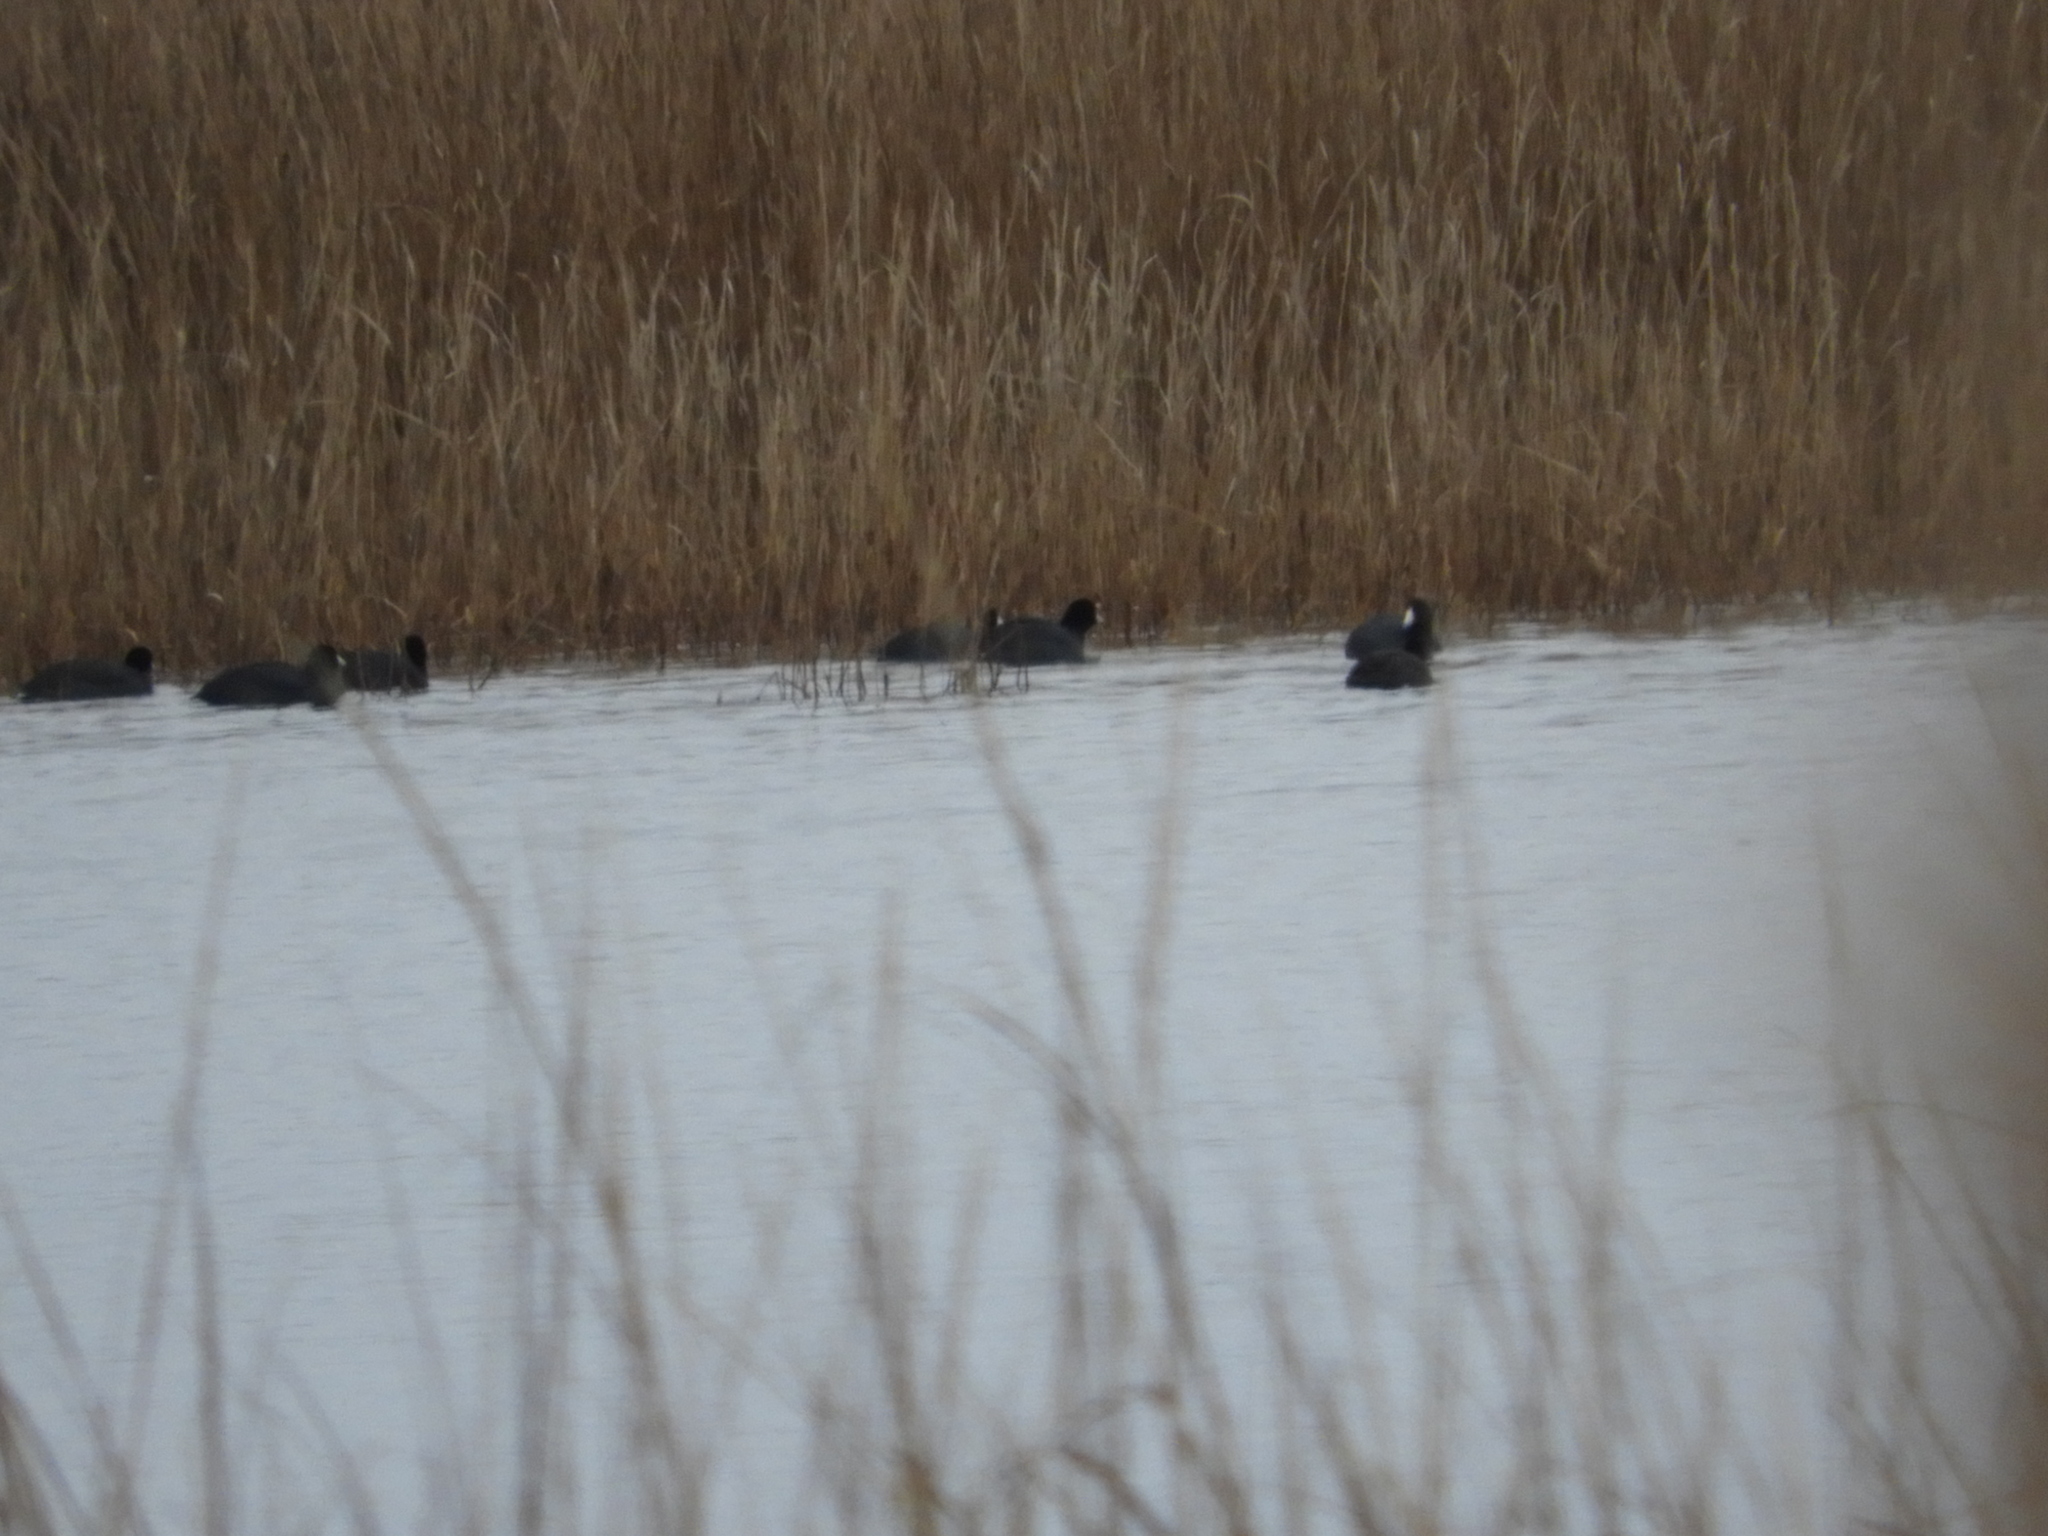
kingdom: Animalia
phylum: Chordata
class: Aves
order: Gruiformes
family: Rallidae
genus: Fulica
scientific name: Fulica americana
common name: American coot
